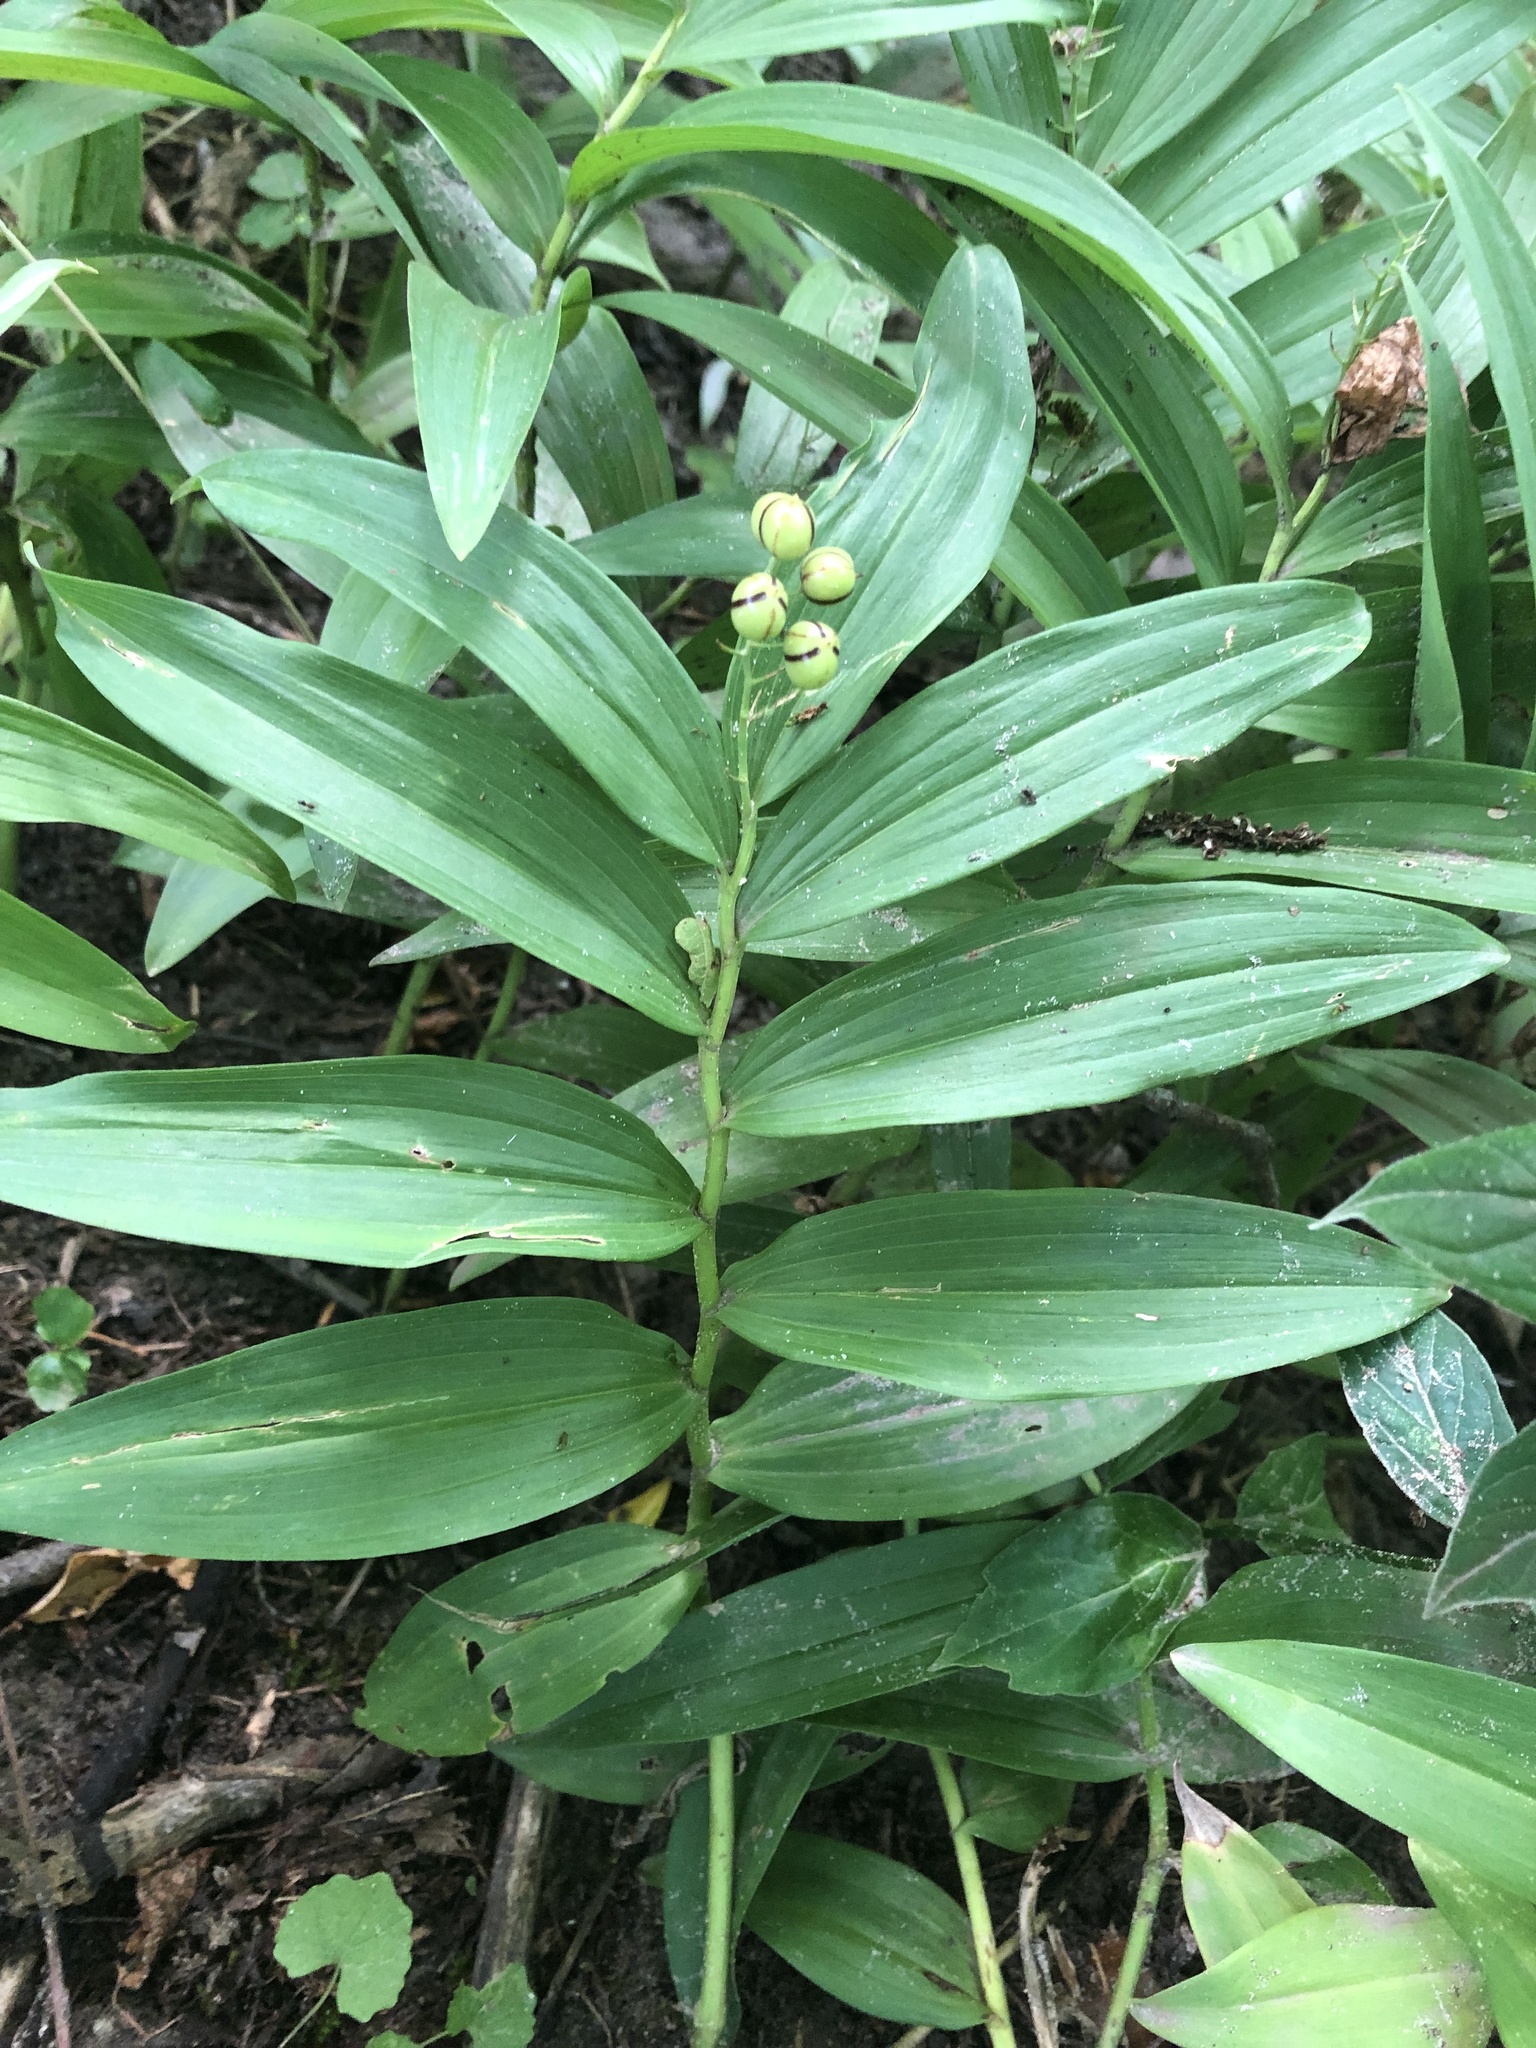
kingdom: Plantae
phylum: Tracheophyta
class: Liliopsida
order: Asparagales
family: Asparagaceae
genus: Maianthemum
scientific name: Maianthemum stellatum
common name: Little false solomon's seal
